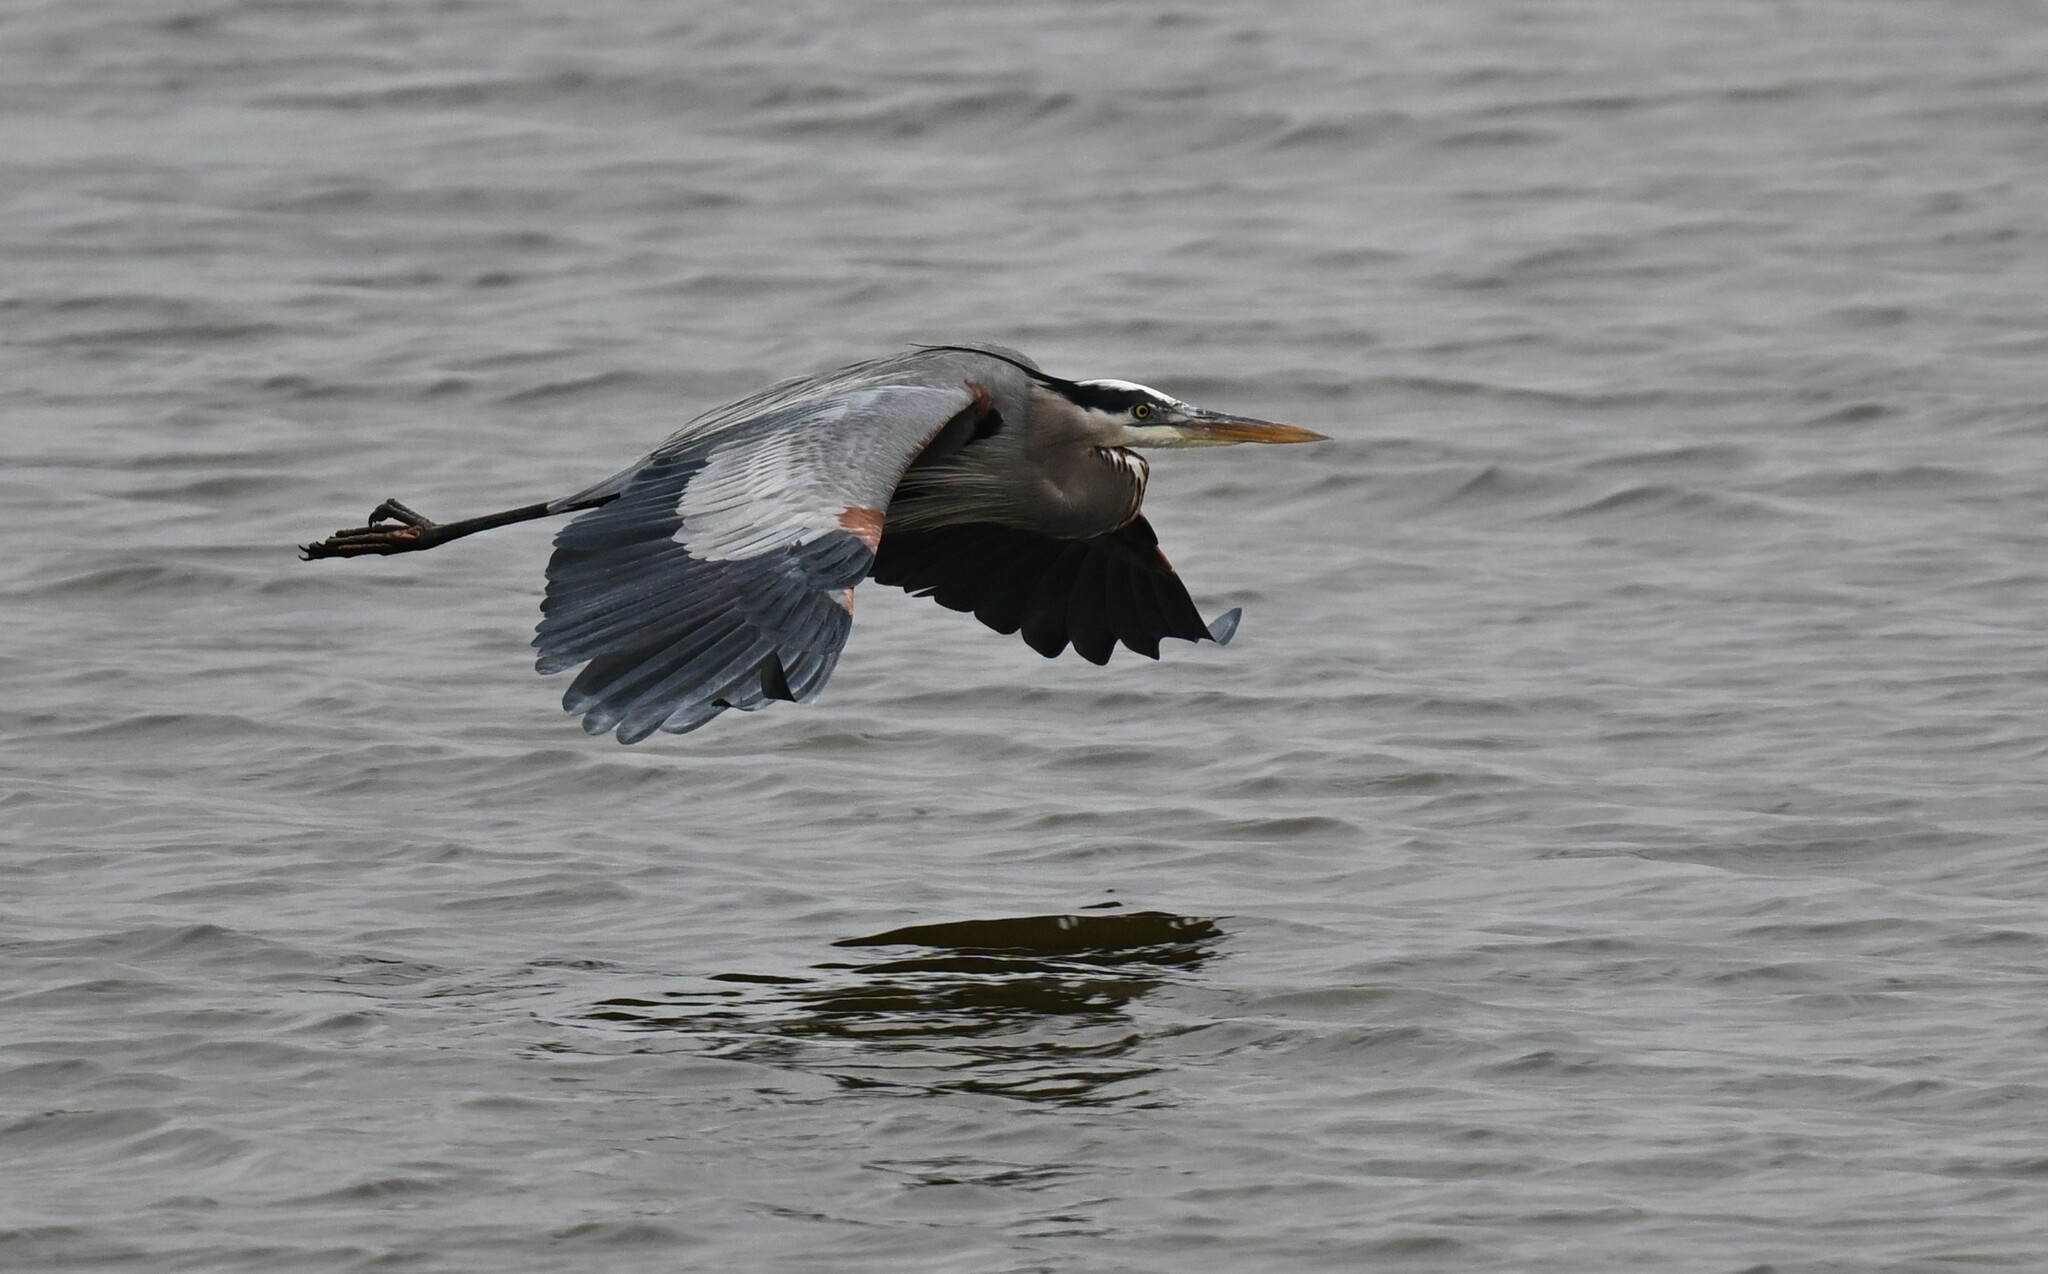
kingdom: Animalia
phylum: Chordata
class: Aves
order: Pelecaniformes
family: Ardeidae
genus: Ardea
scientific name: Ardea herodias
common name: Great blue heron
